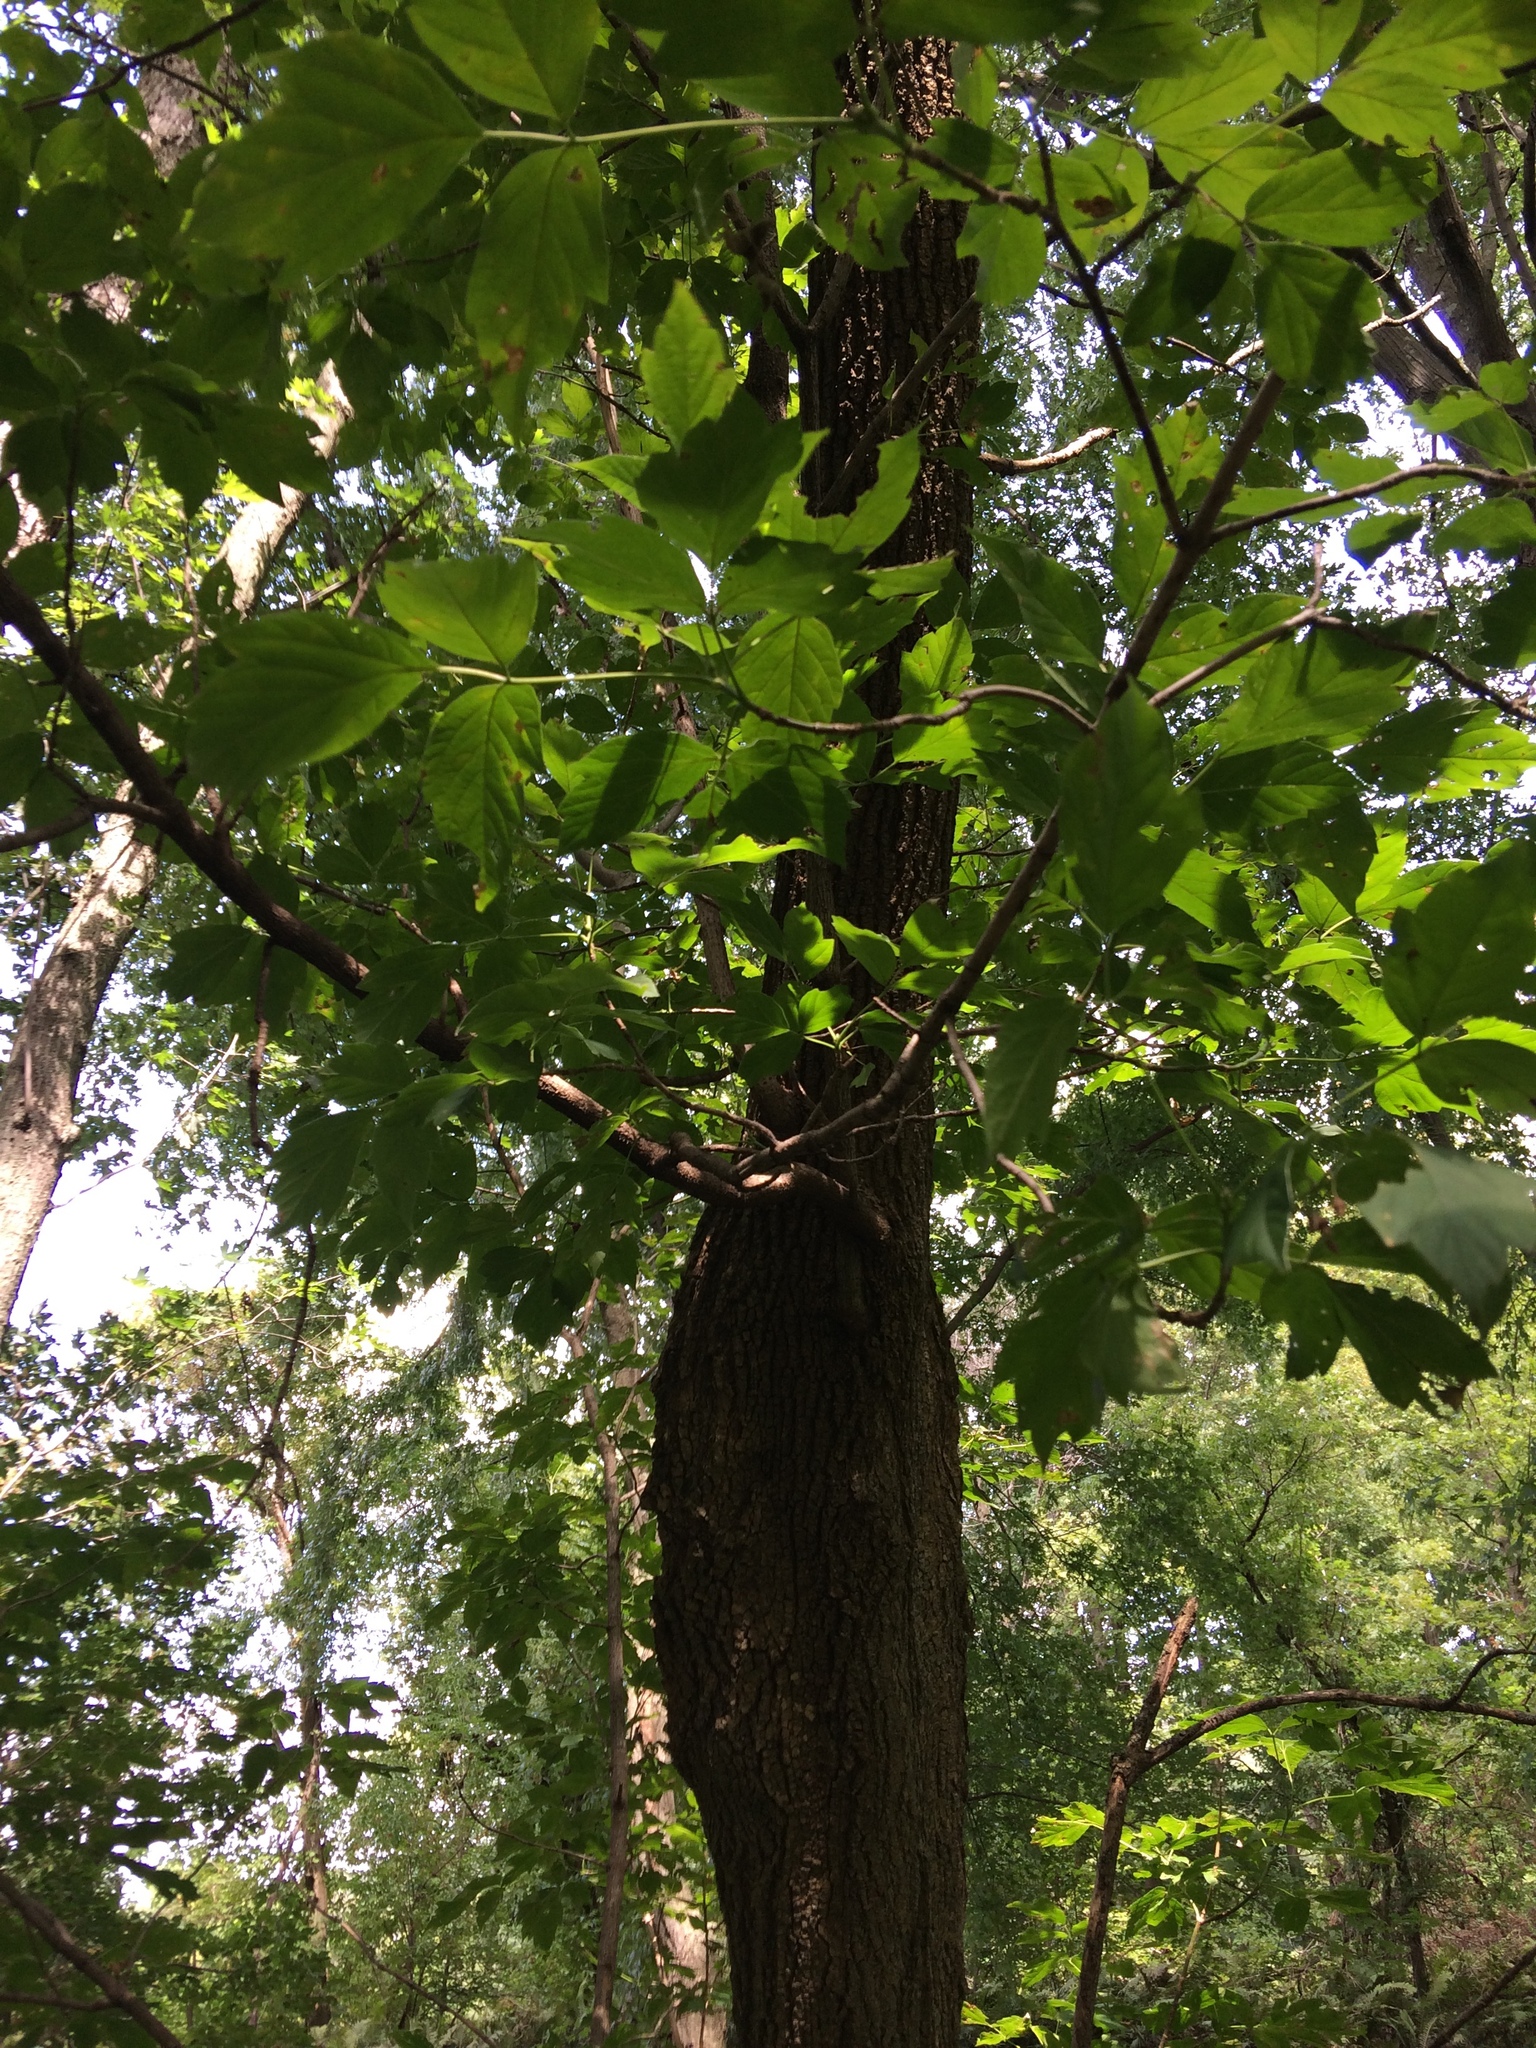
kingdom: Plantae
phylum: Tracheophyta
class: Magnoliopsida
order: Sapindales
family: Sapindaceae
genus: Acer
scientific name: Acer negundo
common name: Ashleaf maple
